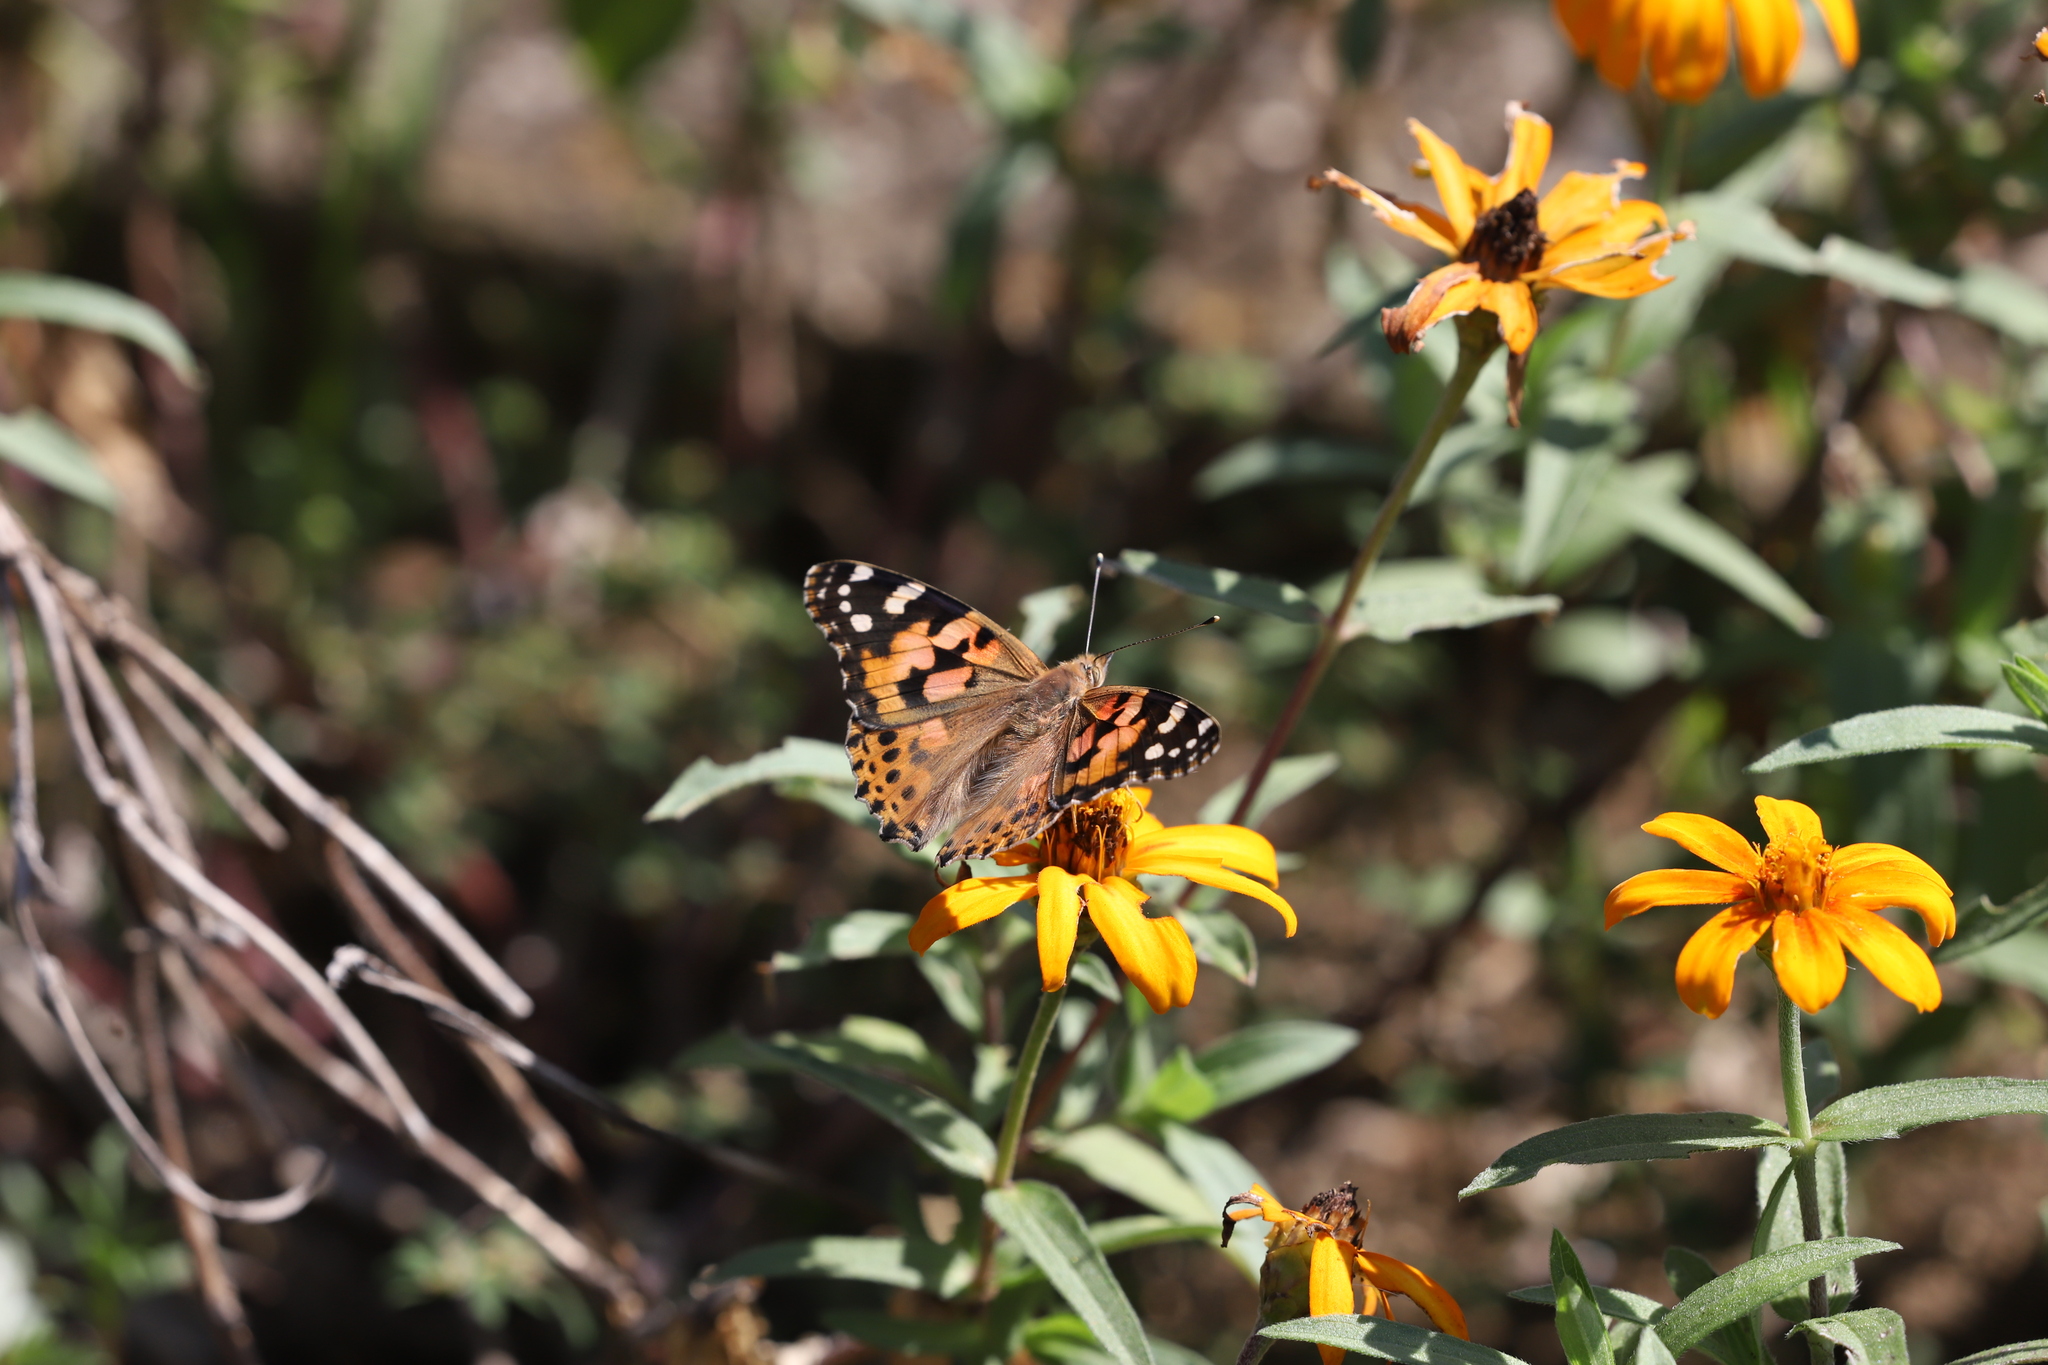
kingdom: Animalia
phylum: Arthropoda
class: Insecta
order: Lepidoptera
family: Nymphalidae
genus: Vanessa
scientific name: Vanessa cardui
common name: Painted lady
